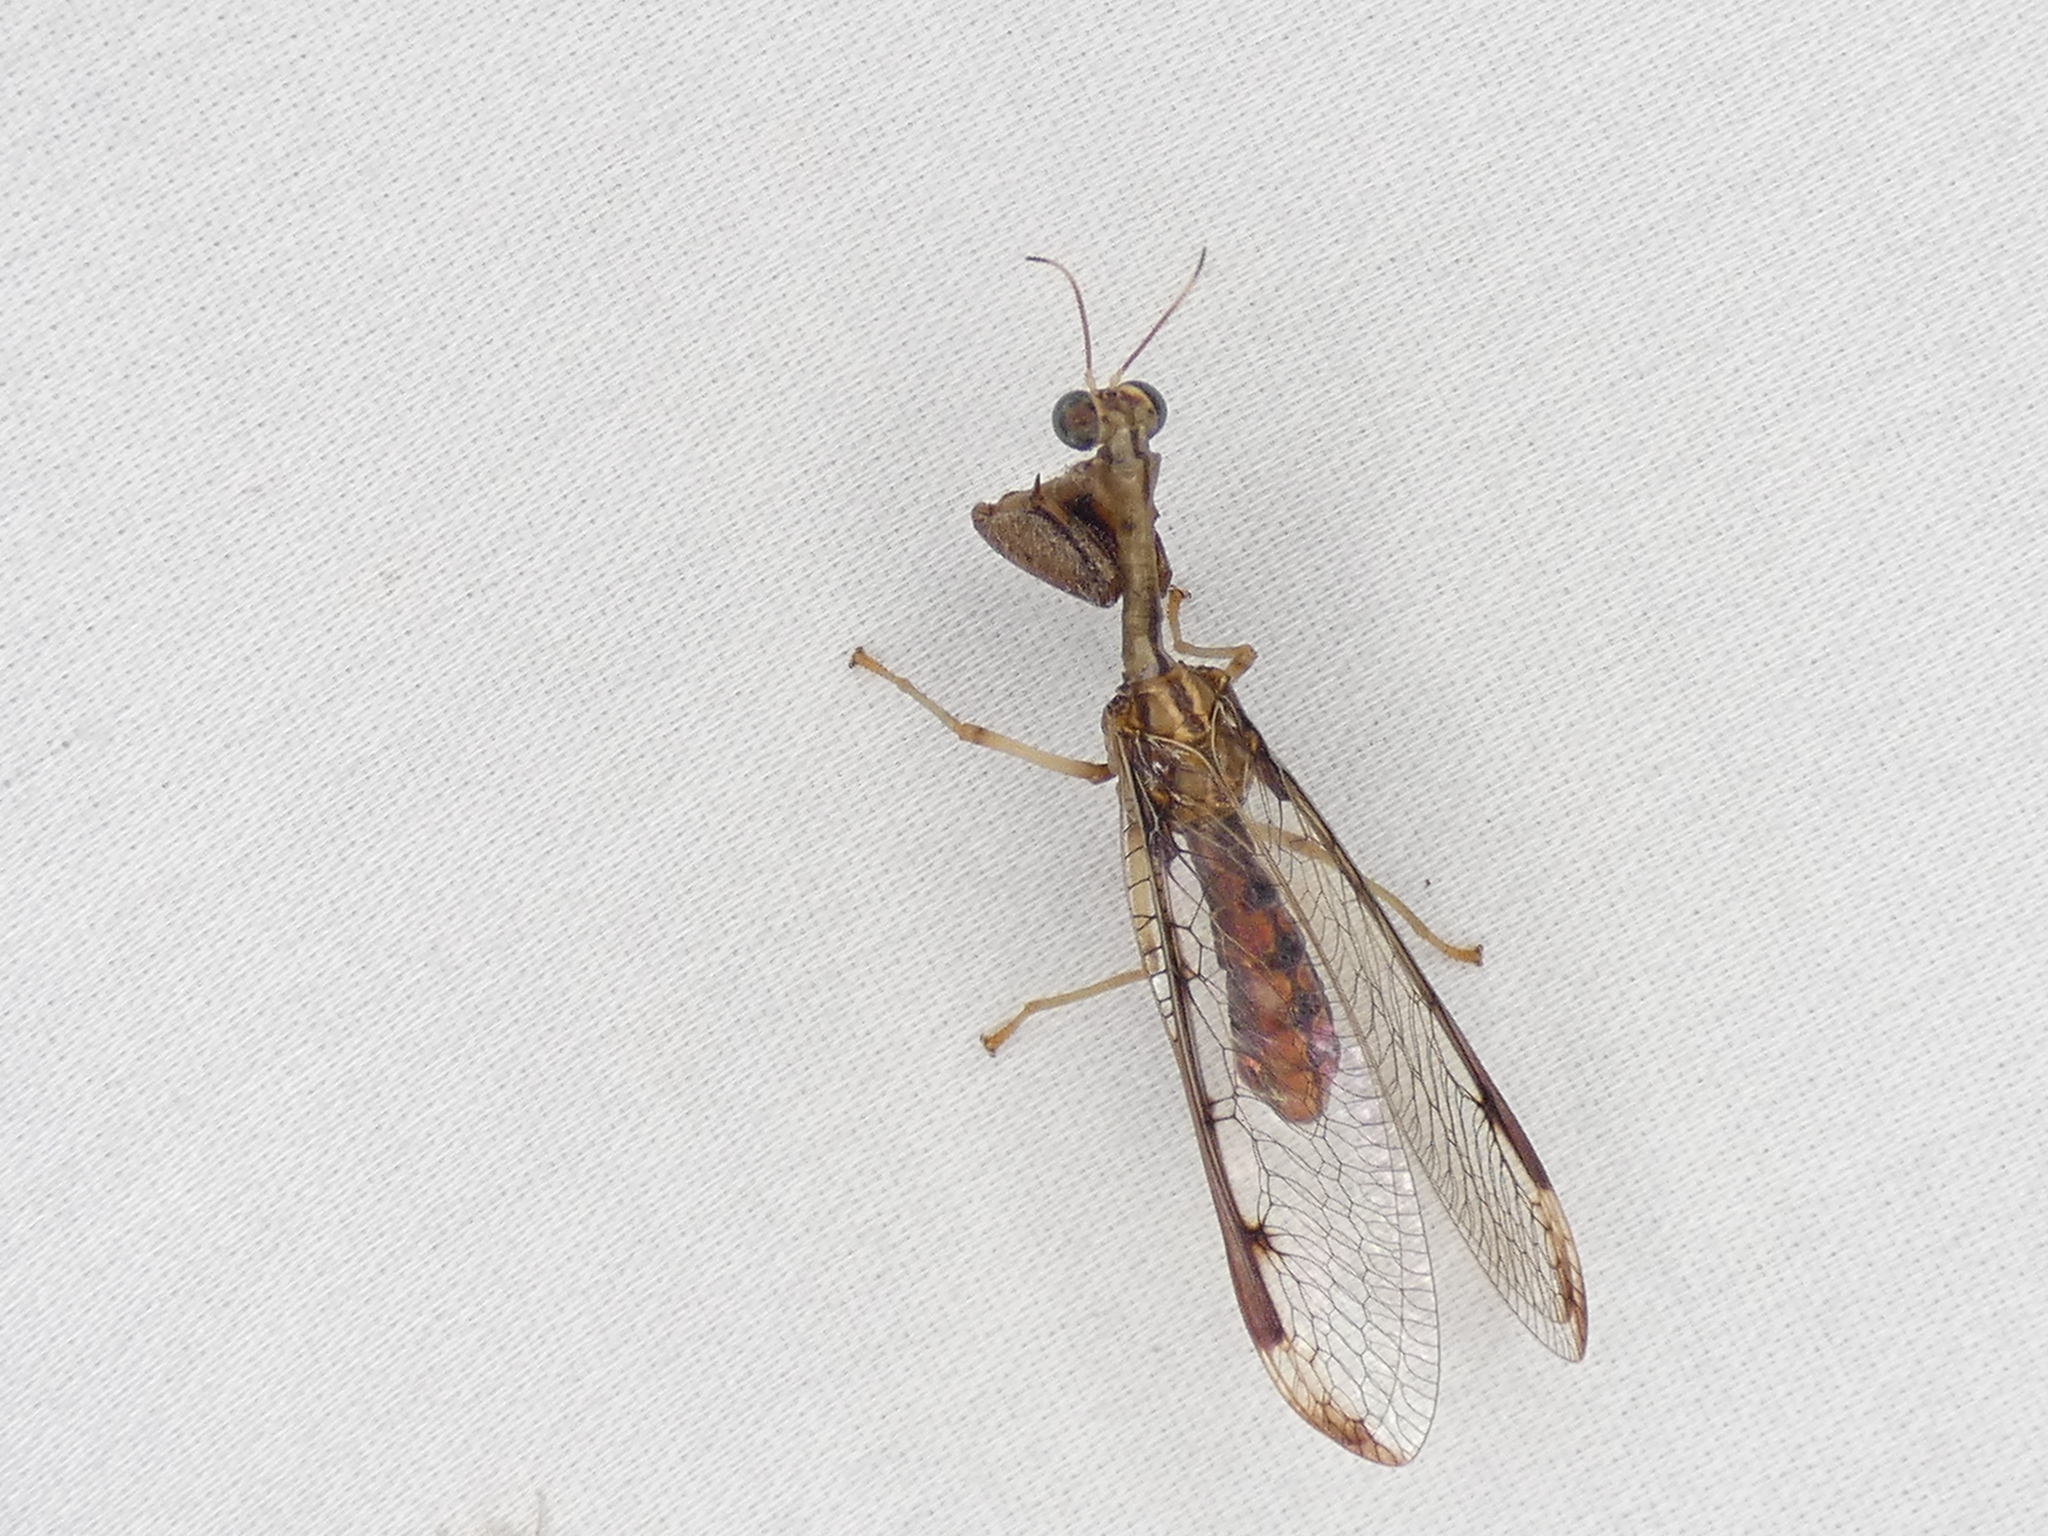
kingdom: Animalia
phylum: Arthropoda
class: Insecta
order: Neuroptera
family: Mantispidae
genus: Dicromantispa
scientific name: Dicromantispa interrupta
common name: Four-spotted mantidfly
